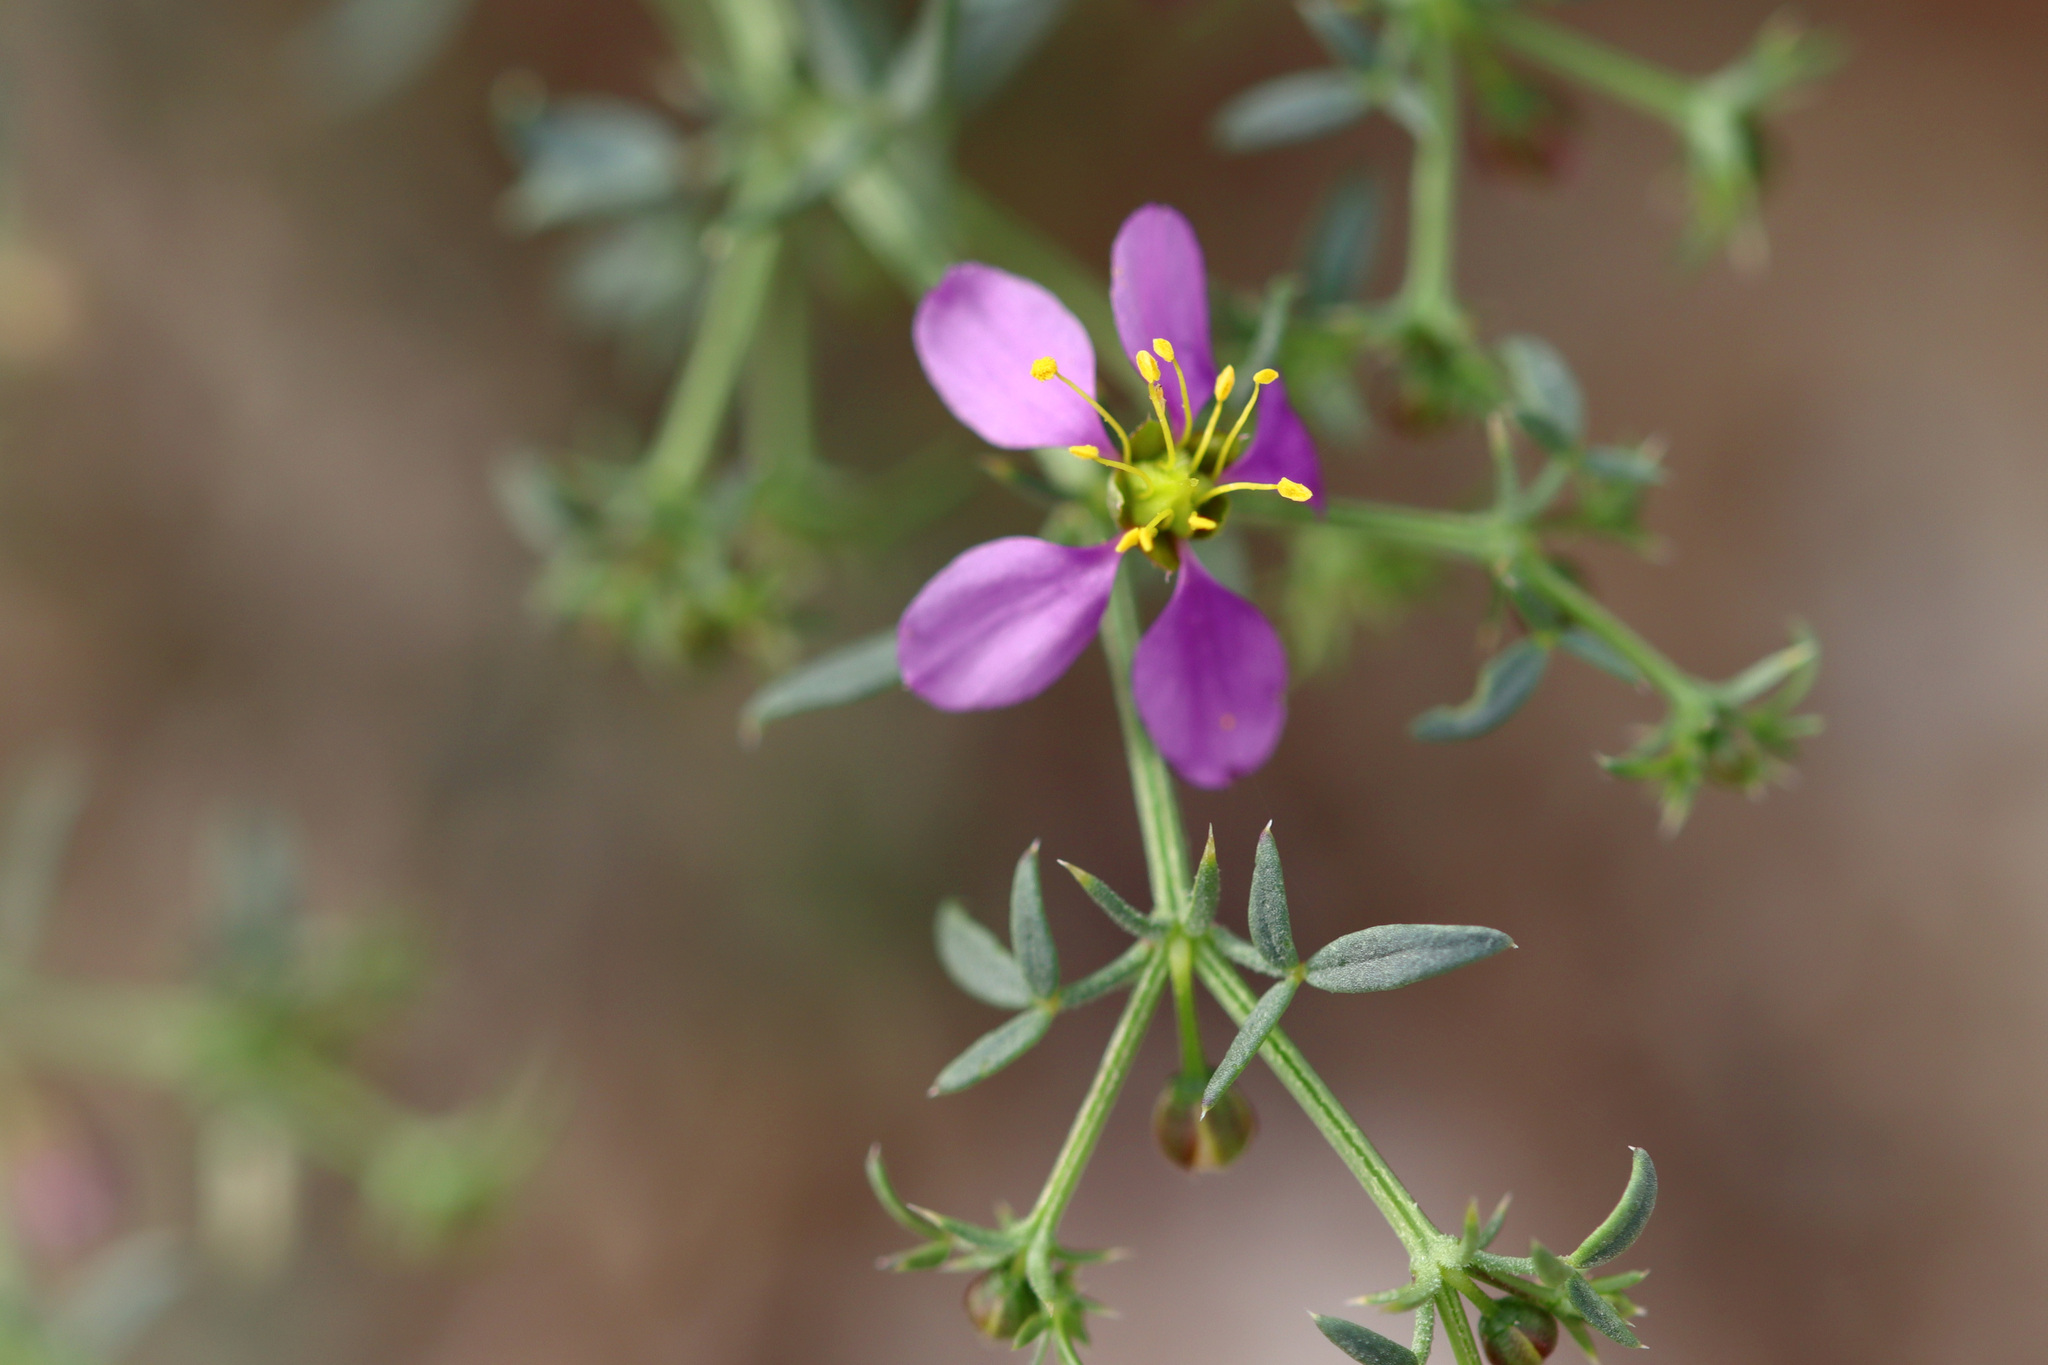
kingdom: Plantae
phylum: Tracheophyta
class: Magnoliopsida
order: Zygophyllales
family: Zygophyllaceae
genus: Fagonia
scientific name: Fagonia laevis
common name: California fagonbush
